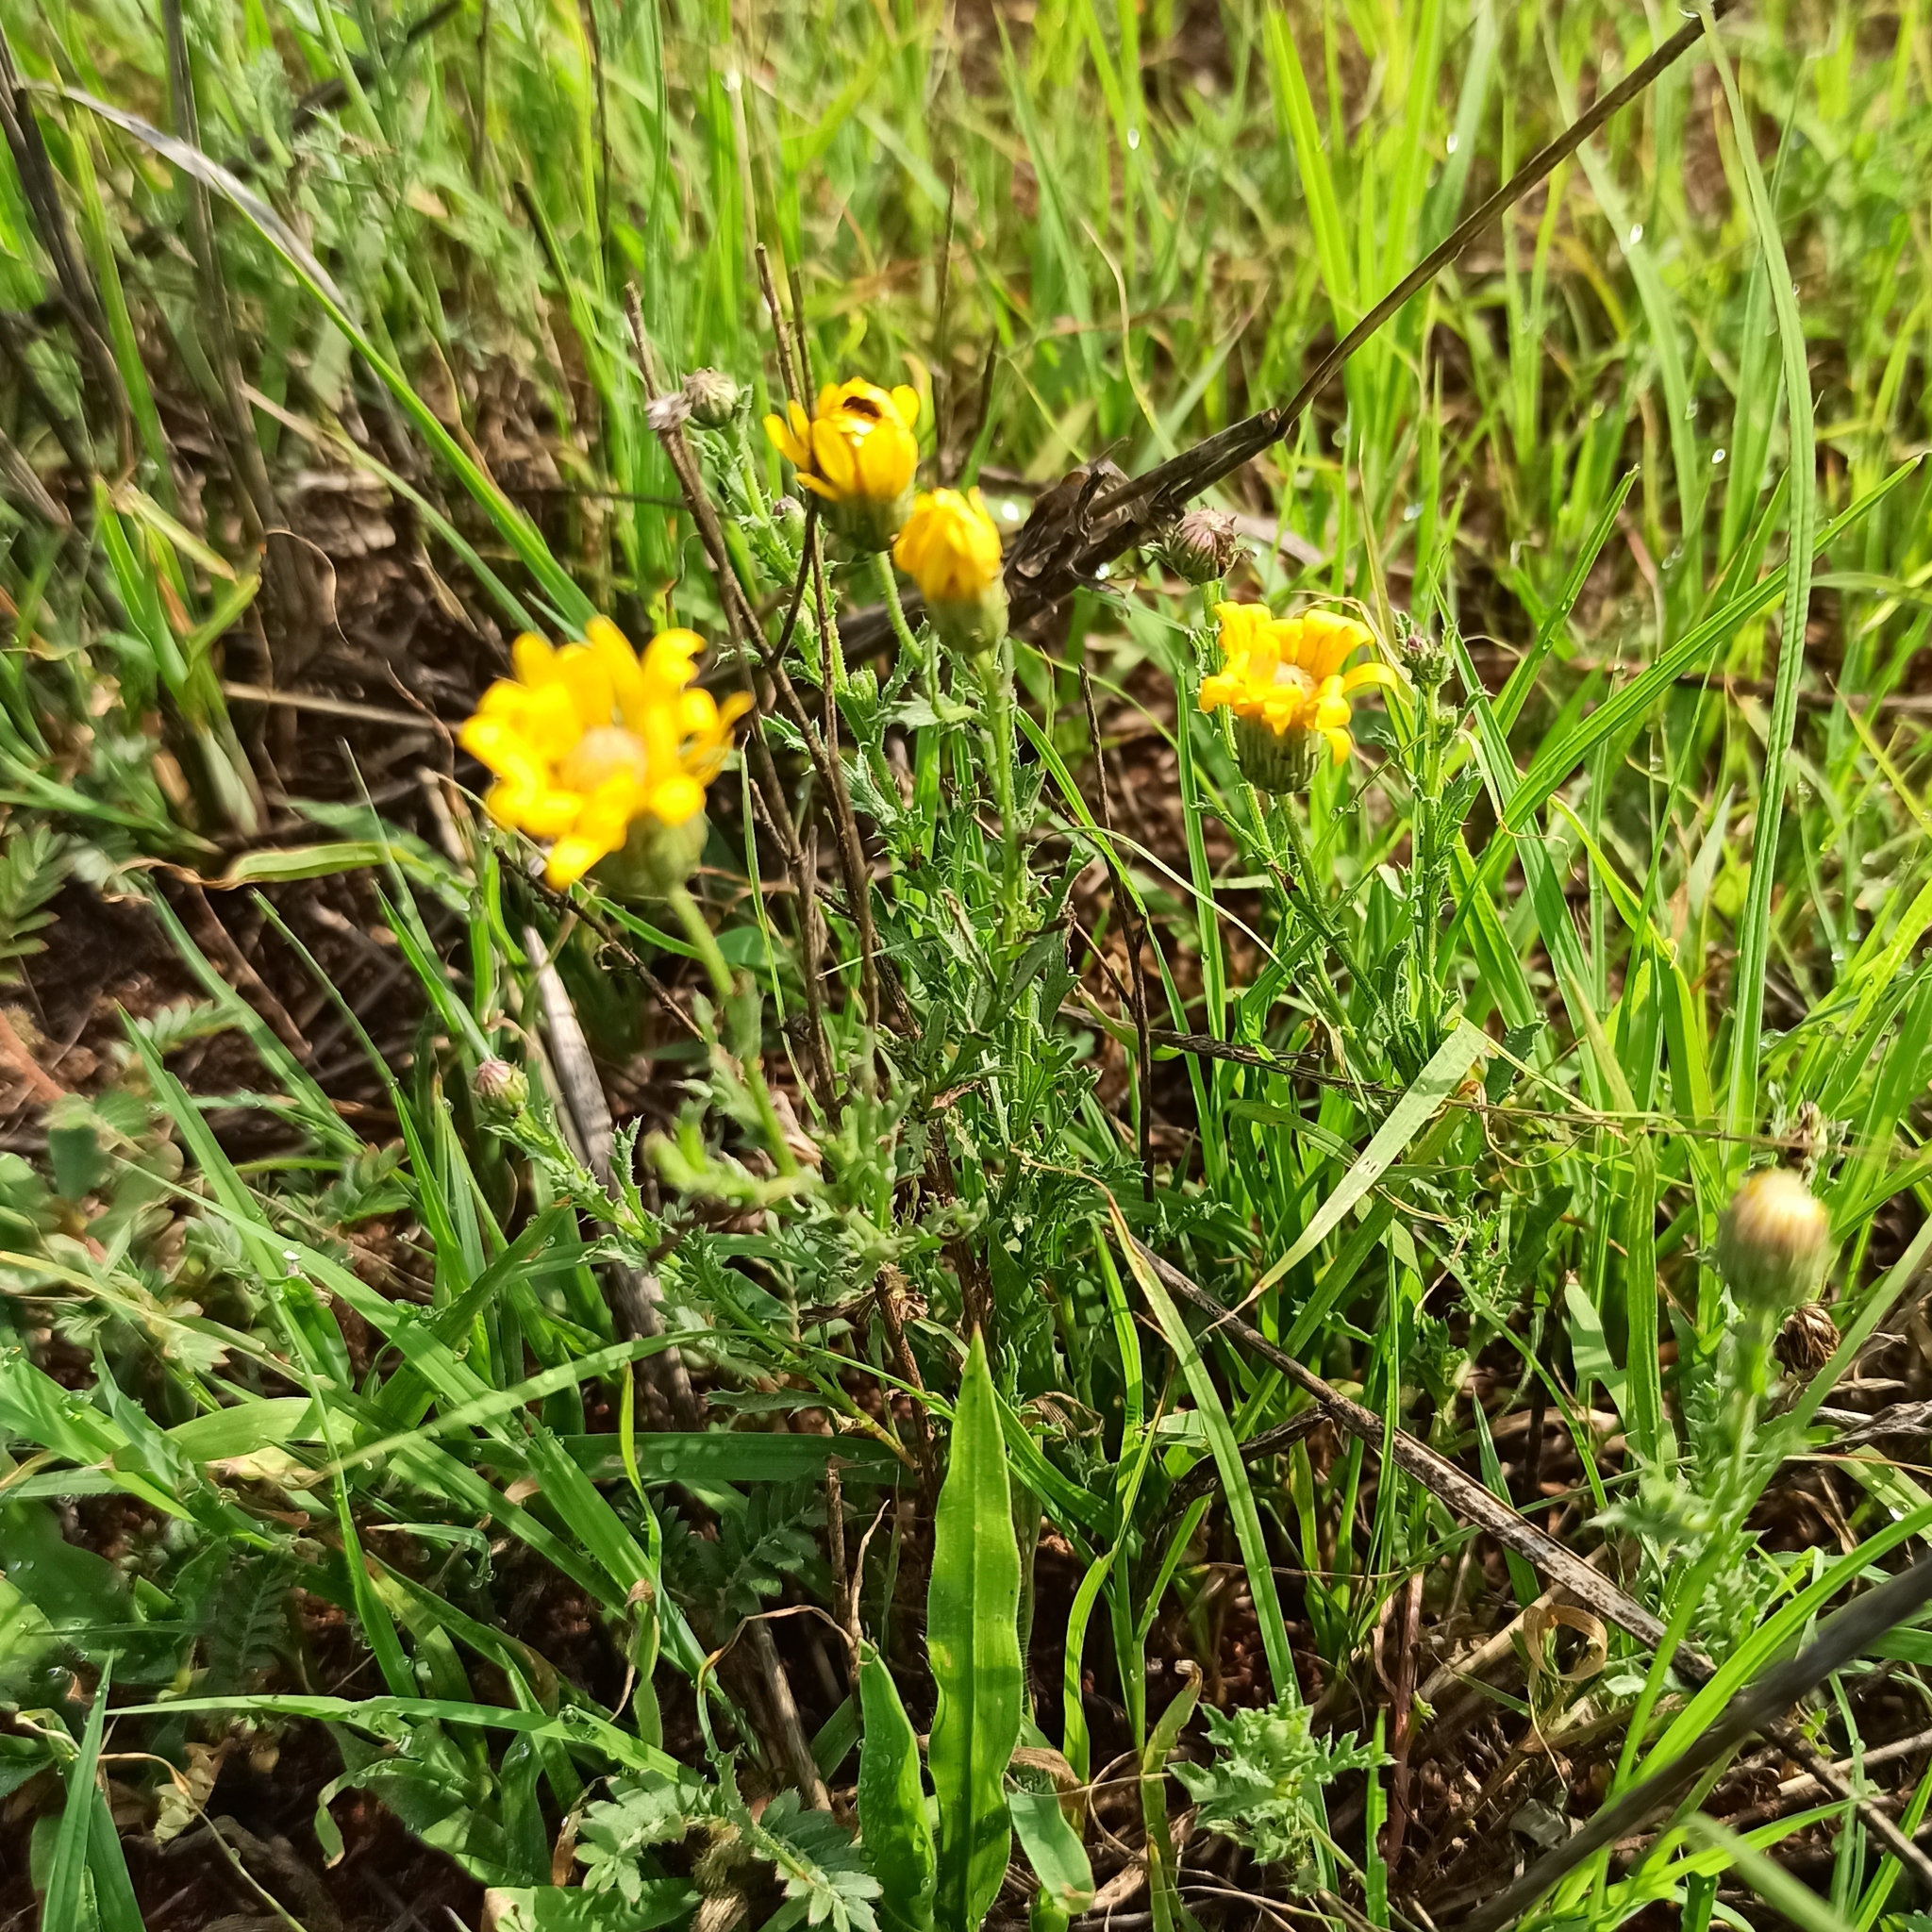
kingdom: Plantae
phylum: Tracheophyta
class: Magnoliopsida
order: Asterales
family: Asteraceae
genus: Xanthisma
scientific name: Xanthisma spinulosum
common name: Spiny goldenweed
